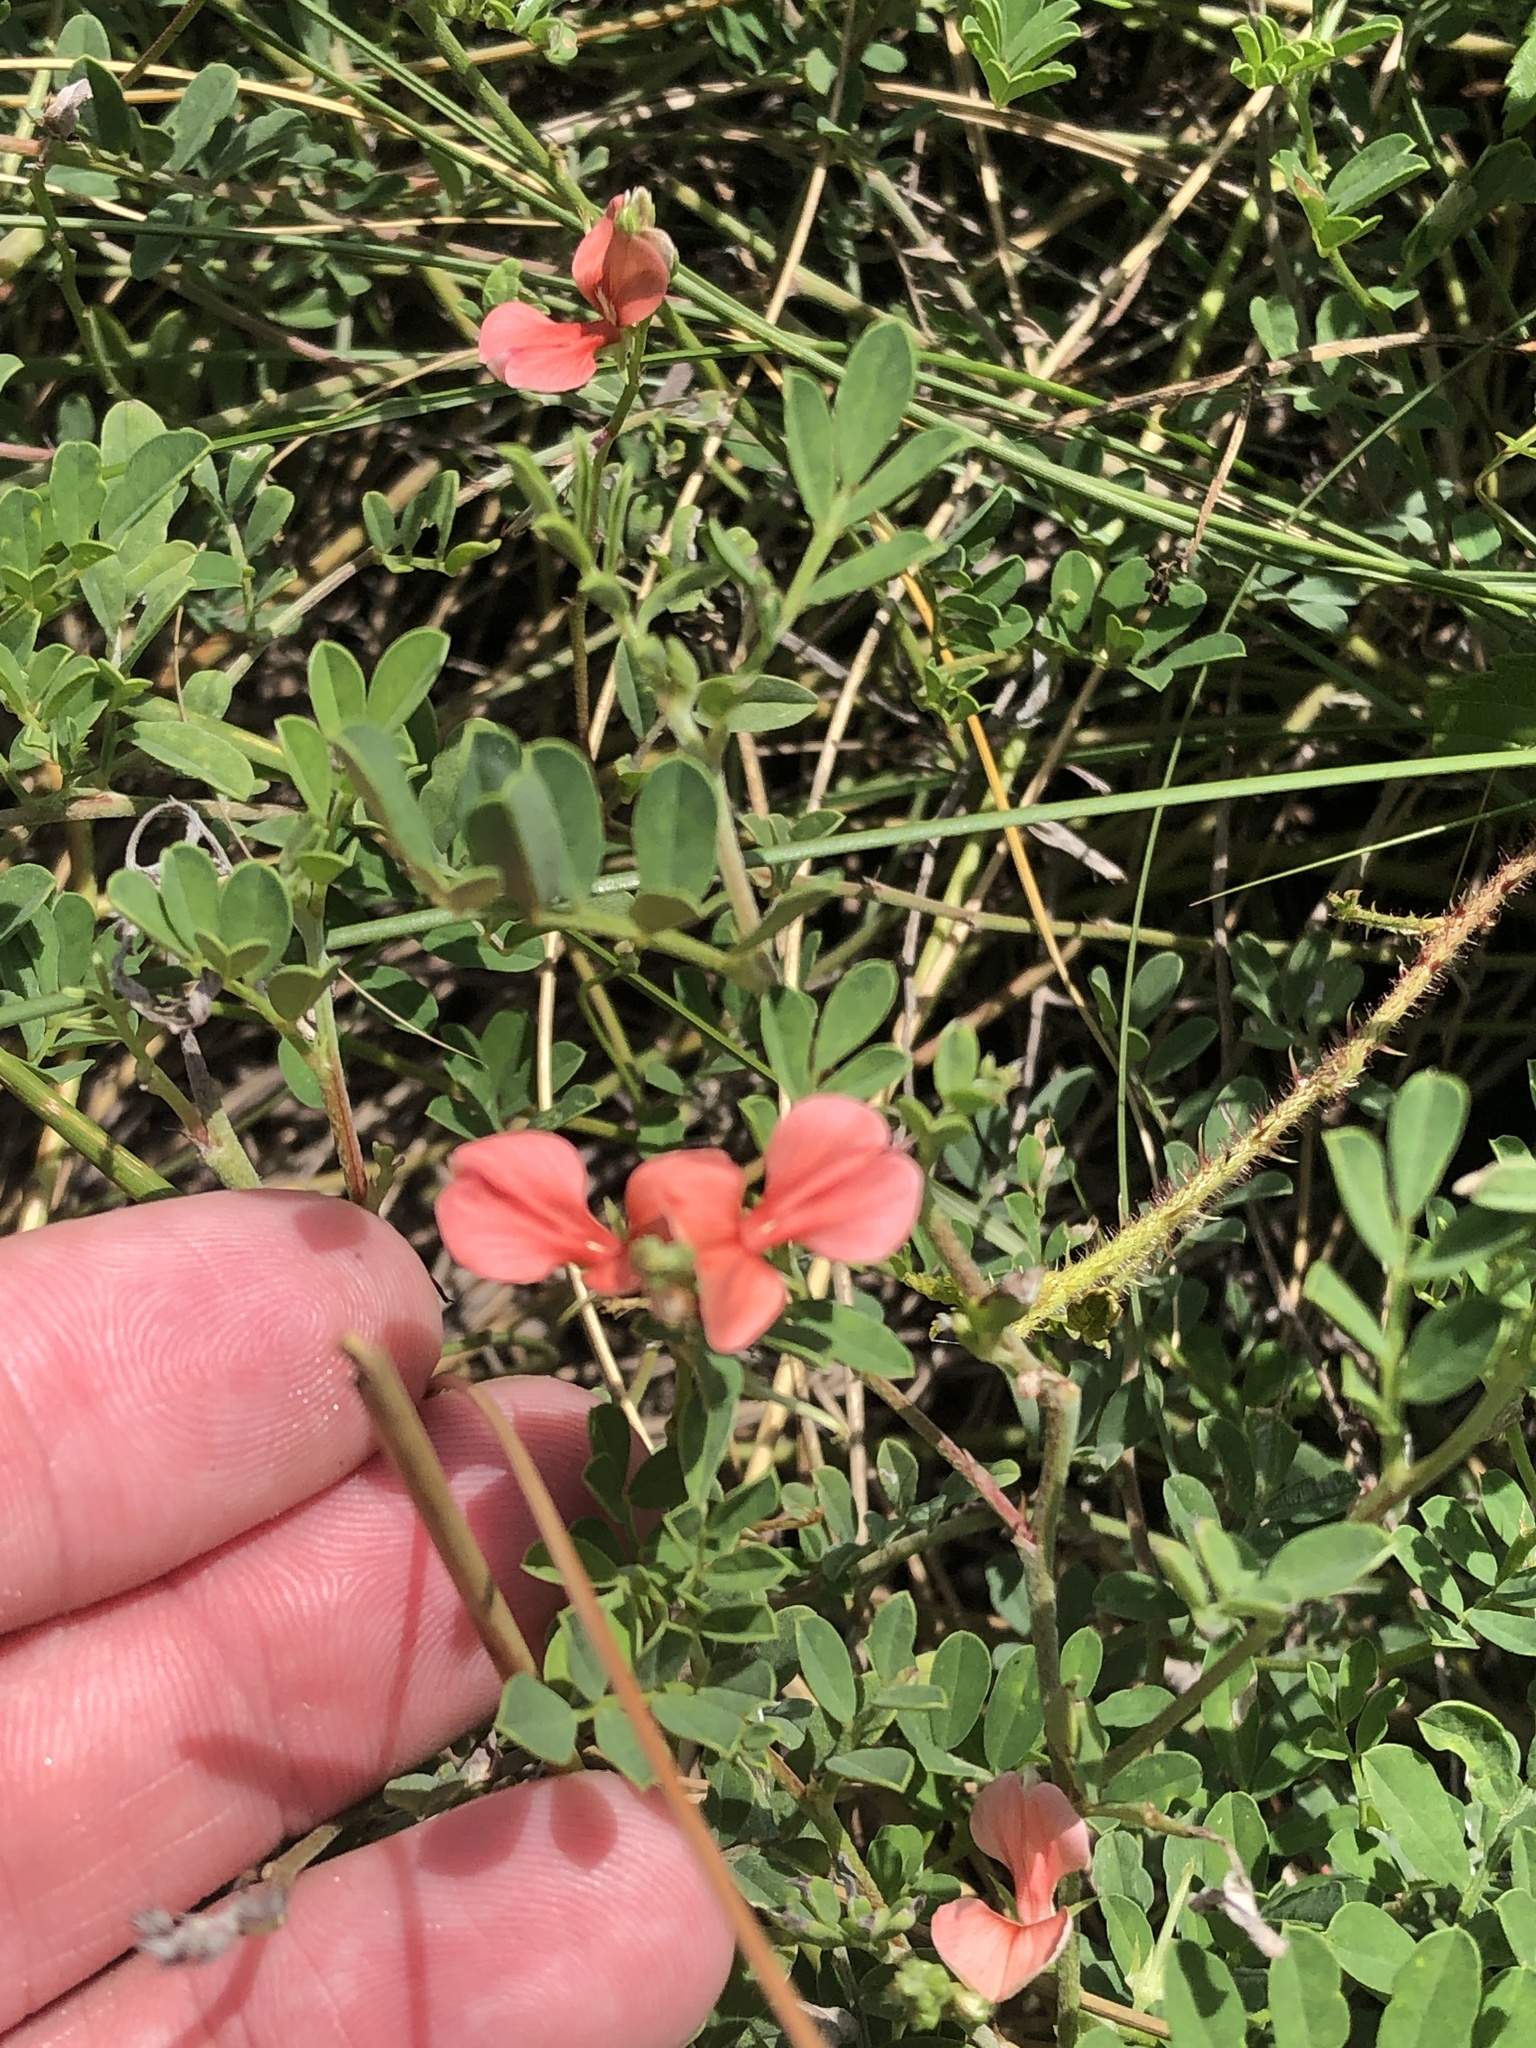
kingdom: Plantae
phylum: Tracheophyta
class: Magnoliopsida
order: Fabales
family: Fabaceae
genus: Indigofera
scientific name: Indigofera miniata
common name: Coast indigo
